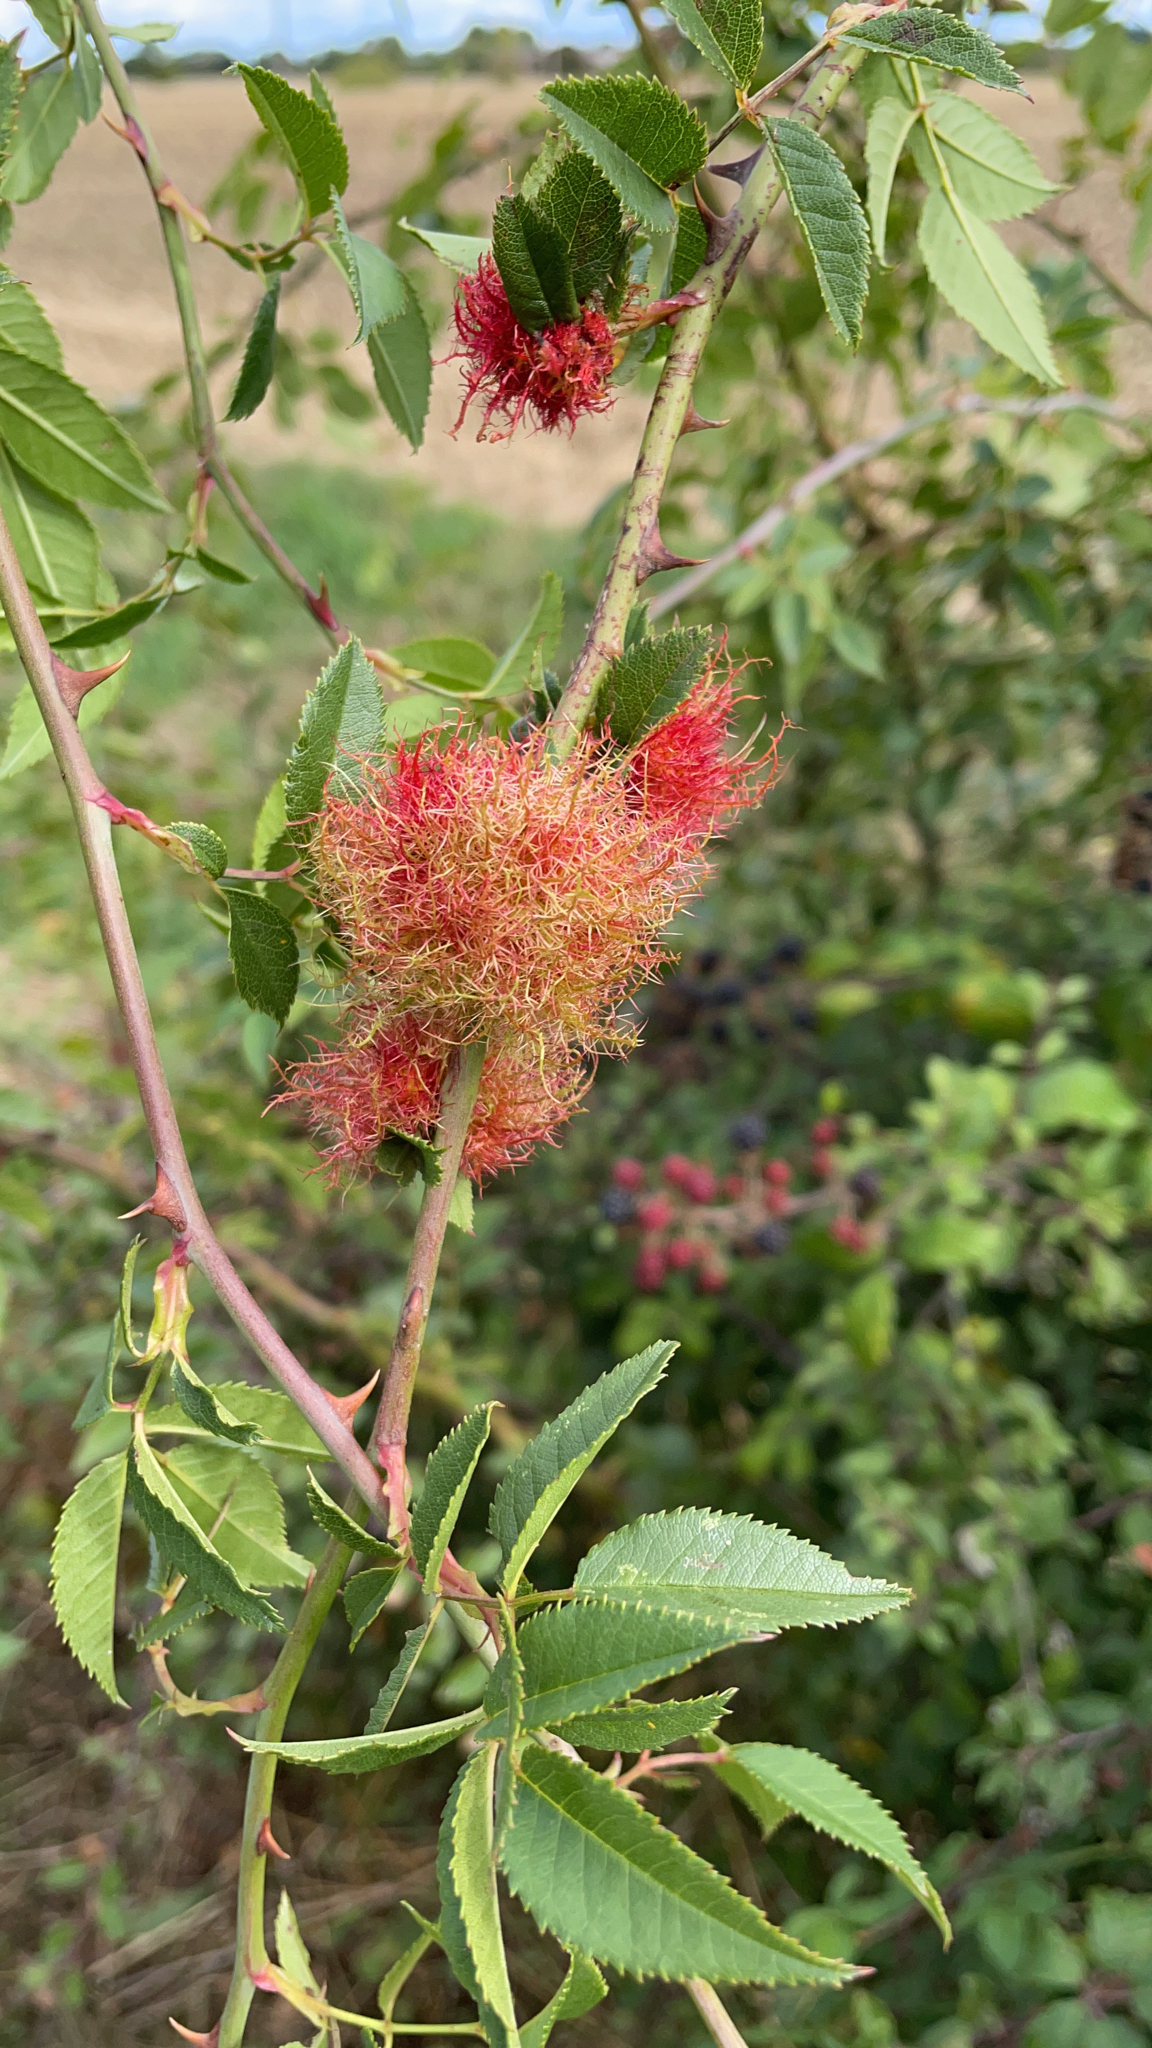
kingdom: Animalia
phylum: Arthropoda
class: Insecta
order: Hymenoptera
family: Cynipidae
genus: Diplolepis
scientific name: Diplolepis rosae
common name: Bedeguar gall
